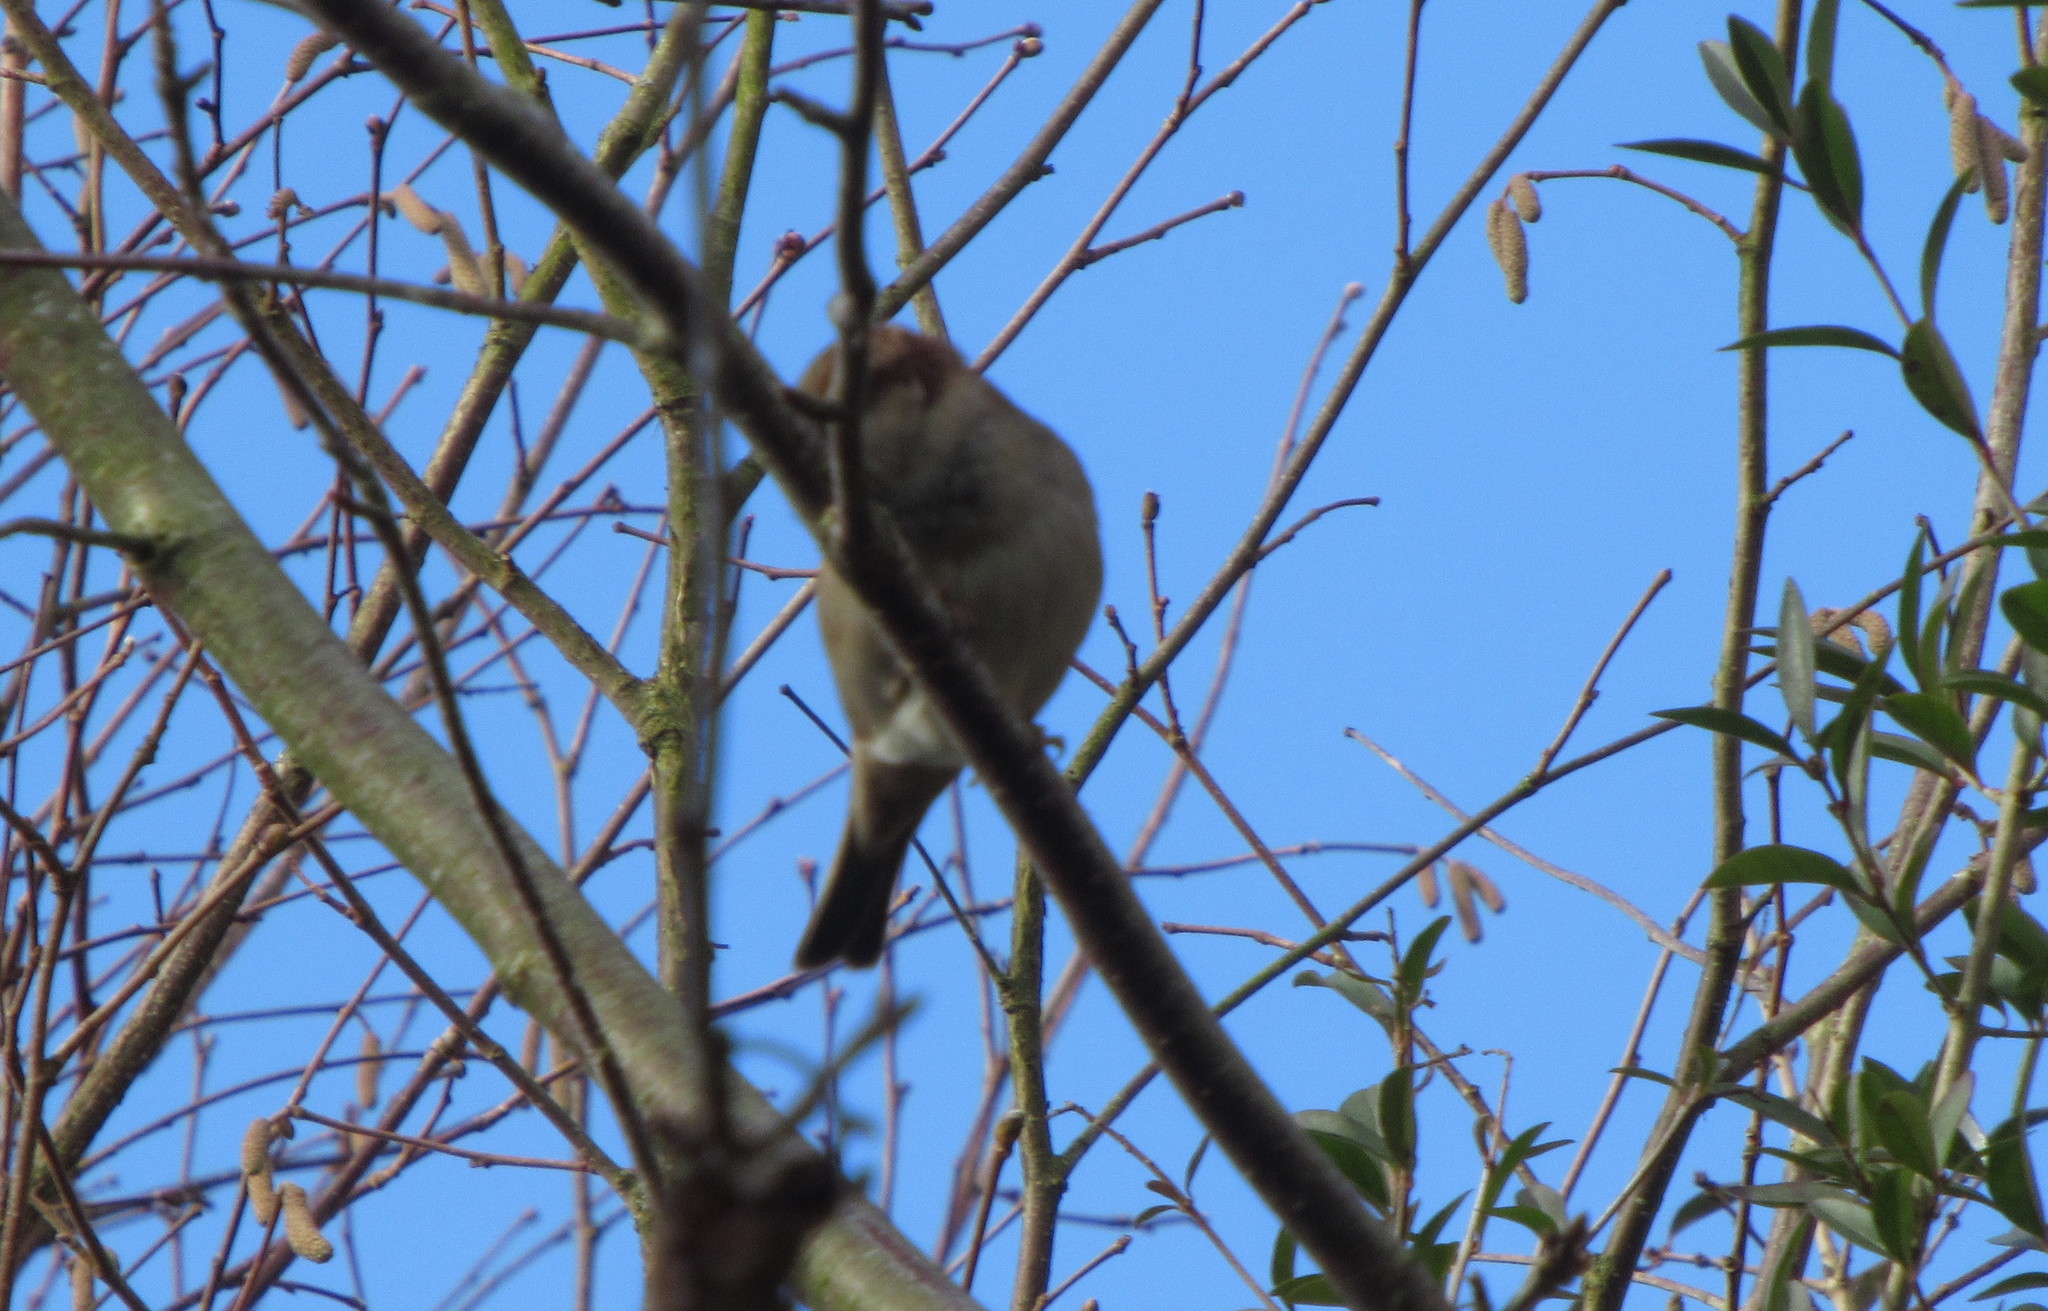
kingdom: Animalia
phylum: Chordata
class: Aves
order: Passeriformes
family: Passeridae
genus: Passer
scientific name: Passer domesticus
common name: House sparrow
